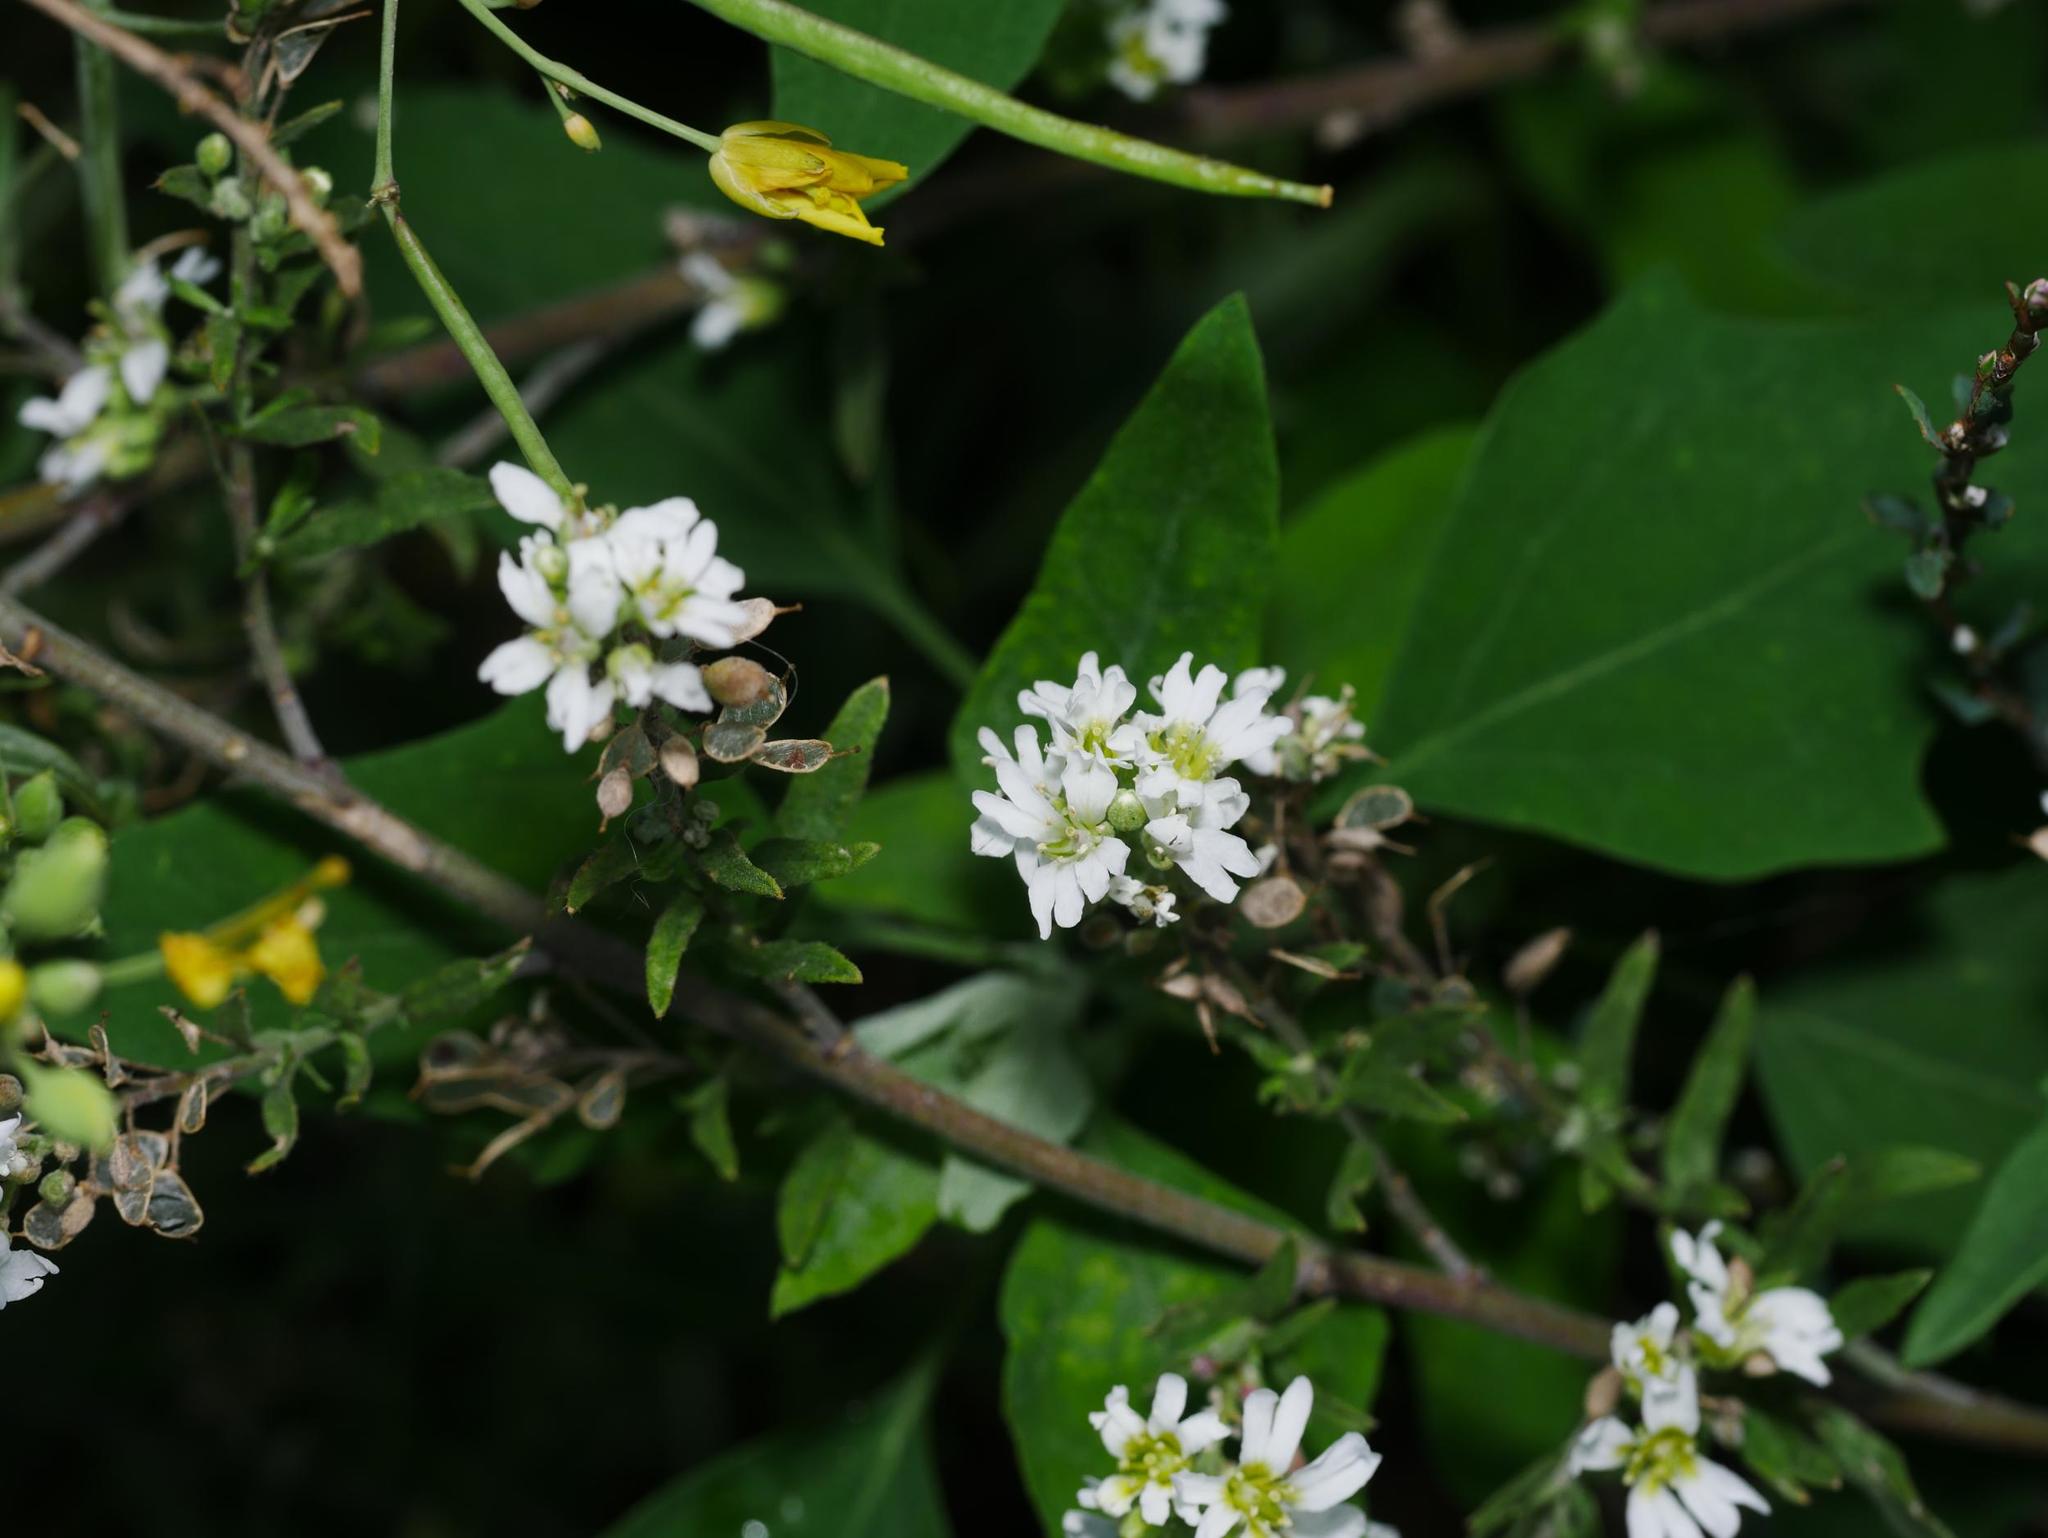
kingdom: Plantae
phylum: Tracheophyta
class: Magnoliopsida
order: Brassicales
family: Brassicaceae
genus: Berteroa
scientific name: Berteroa incana
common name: Hoary alison
